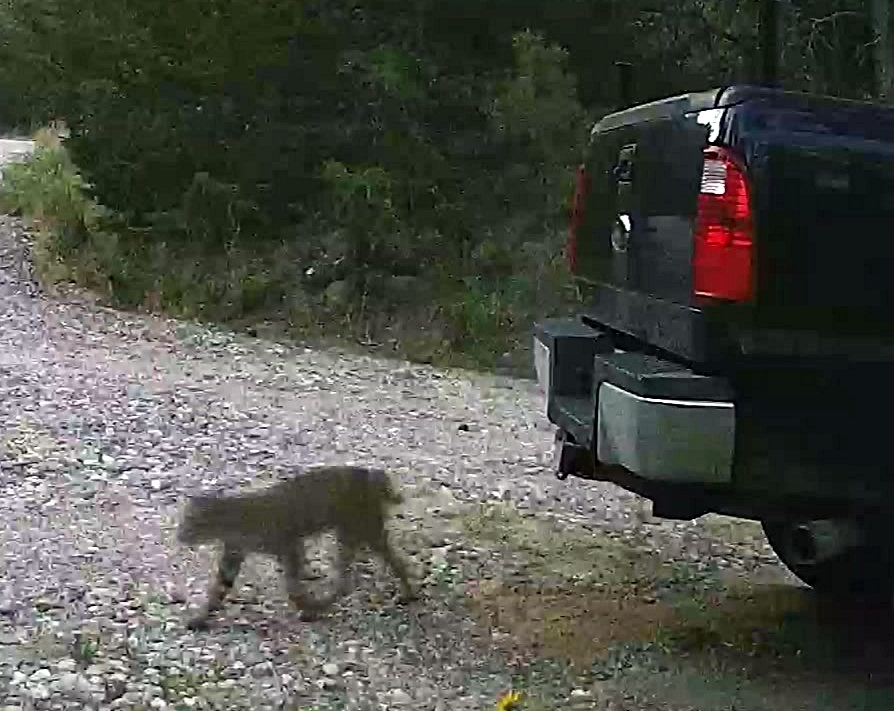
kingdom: Animalia
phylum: Chordata
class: Mammalia
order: Carnivora
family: Felidae
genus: Lynx
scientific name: Lynx rufus
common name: Bobcat
